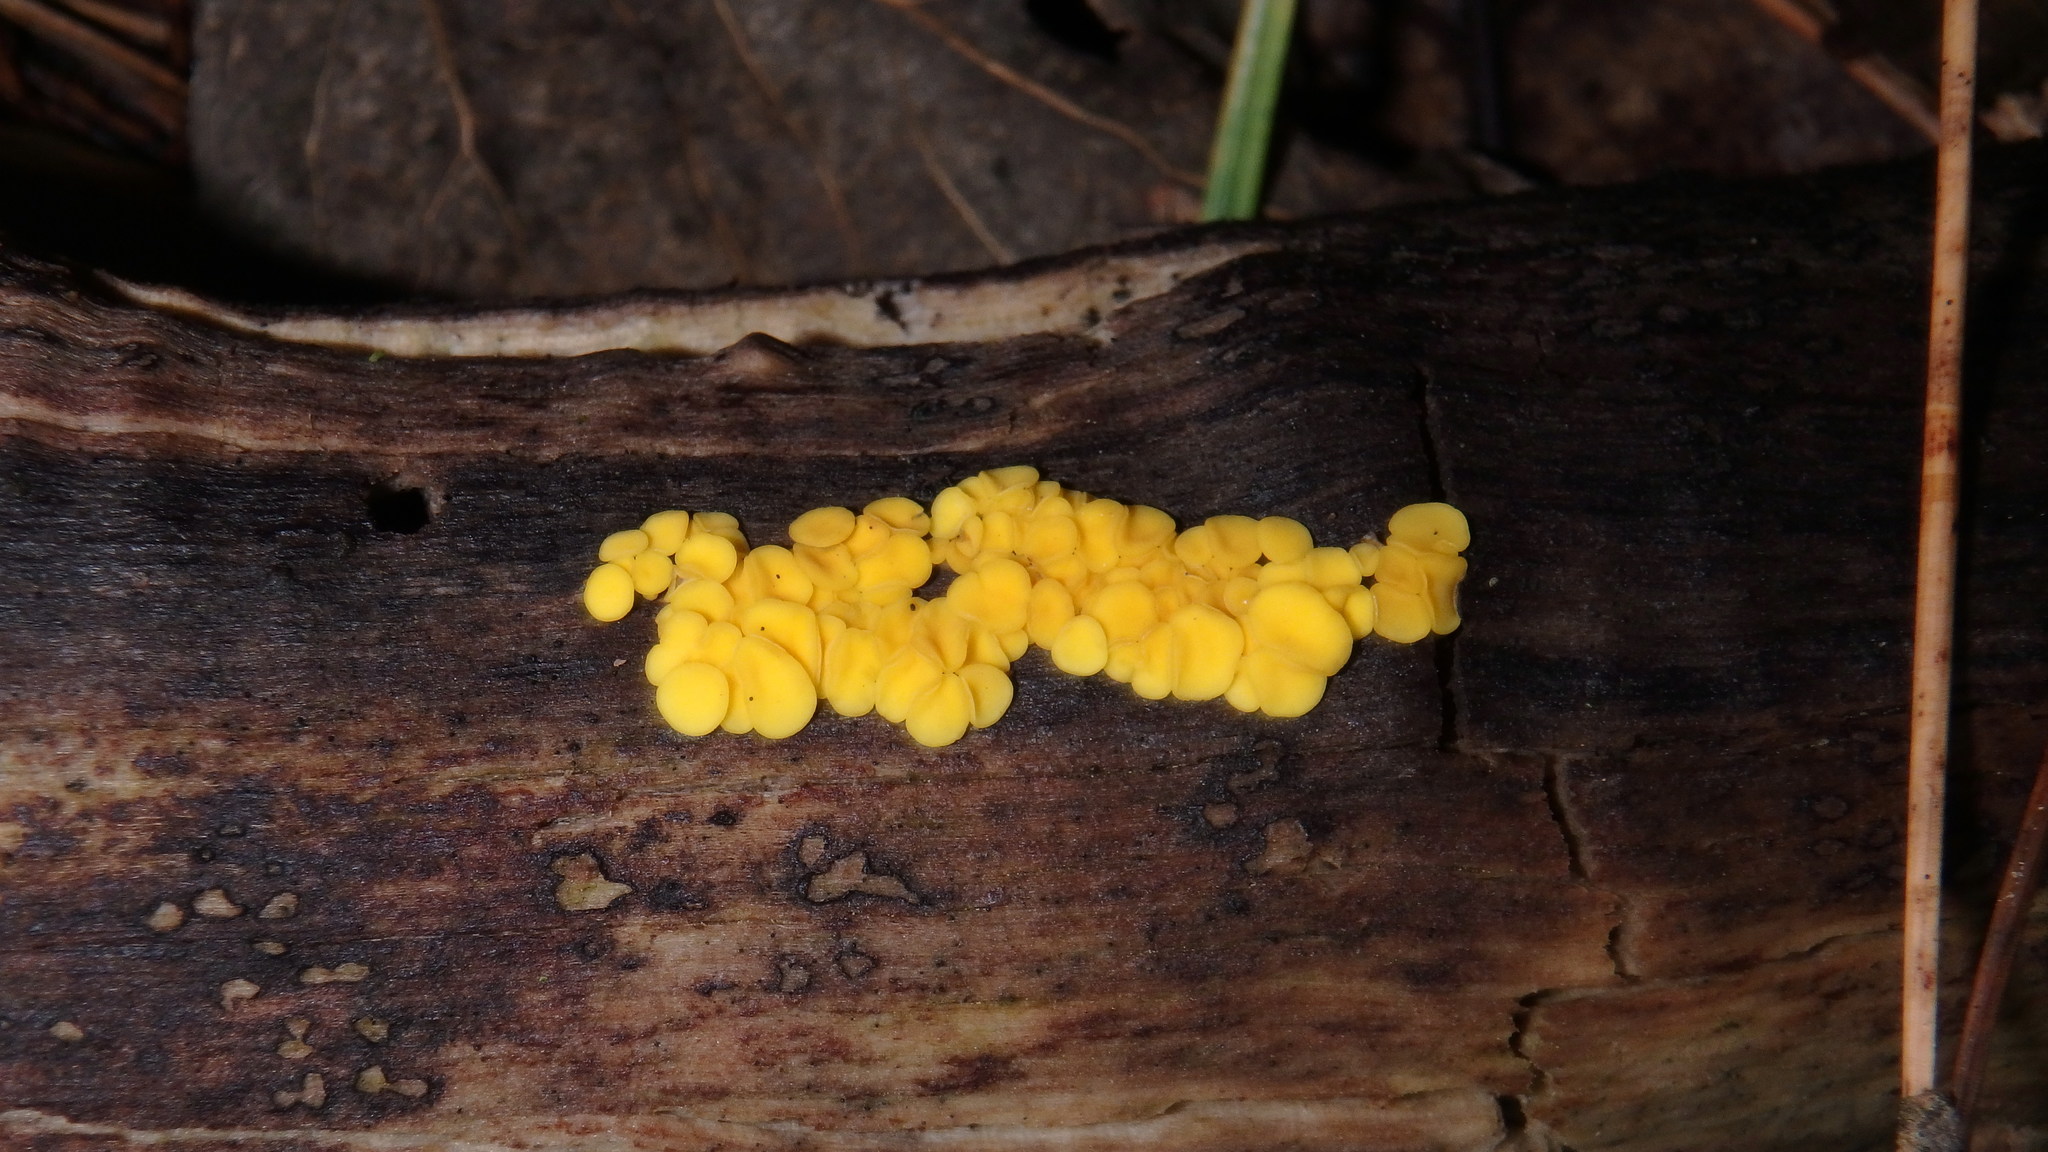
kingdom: Fungi
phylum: Ascomycota
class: Leotiomycetes
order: Helotiales
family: Pezizellaceae
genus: Calycina
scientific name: Calycina citrina
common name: Yellow fairy cups
